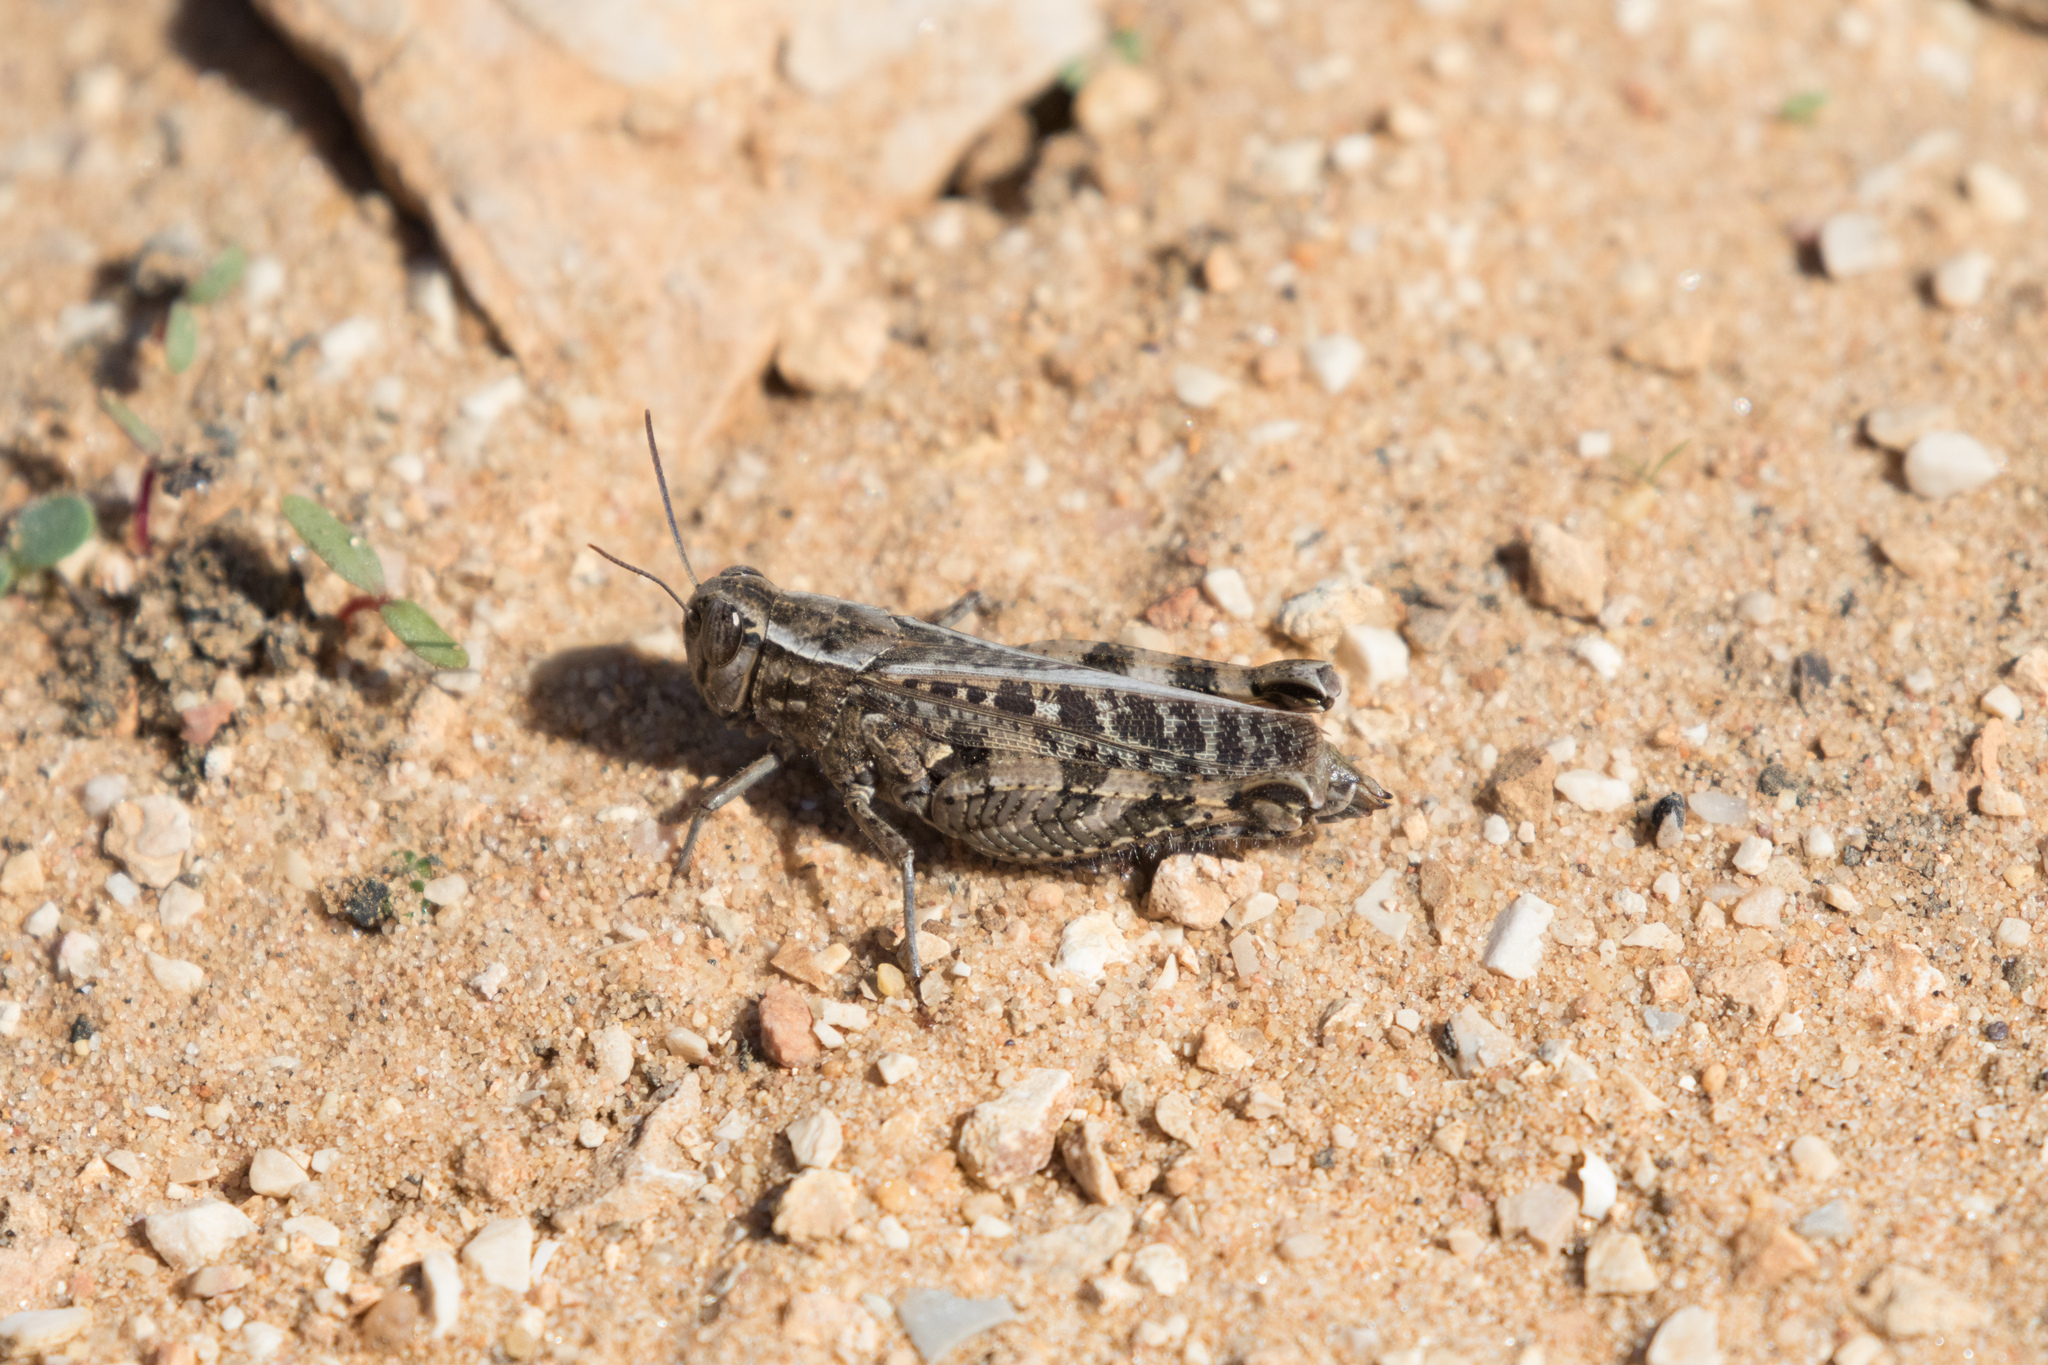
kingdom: Animalia
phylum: Arthropoda
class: Insecta
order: Orthoptera
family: Acrididae
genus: Calliptamus
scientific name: Calliptamus barbarus
